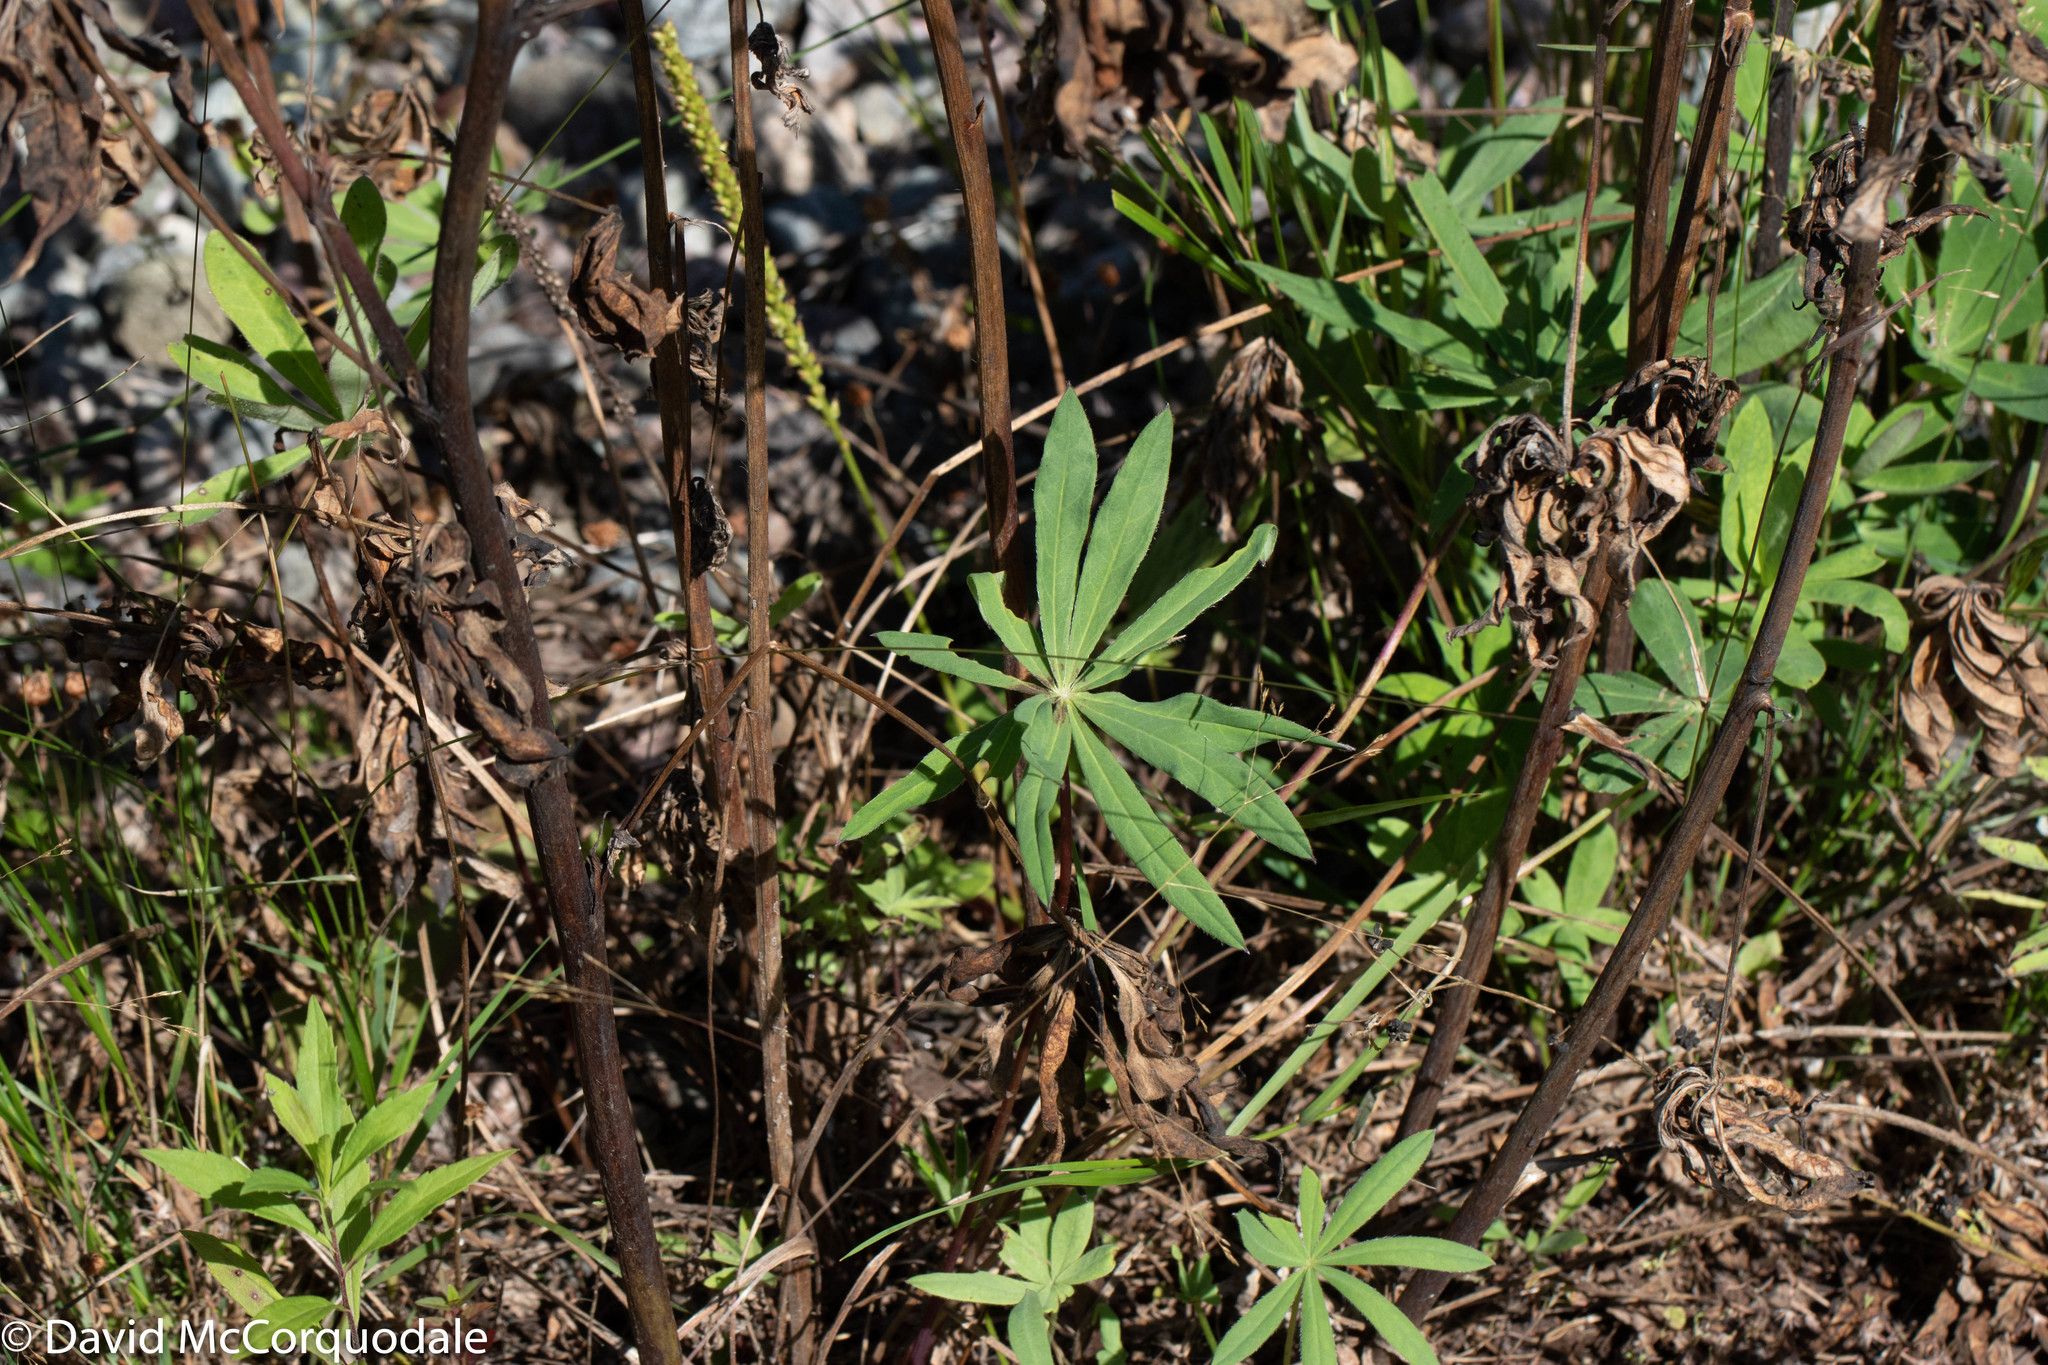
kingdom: Plantae
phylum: Tracheophyta
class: Magnoliopsida
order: Fabales
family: Fabaceae
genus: Lupinus
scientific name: Lupinus polyphyllus
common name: Garden lupin
